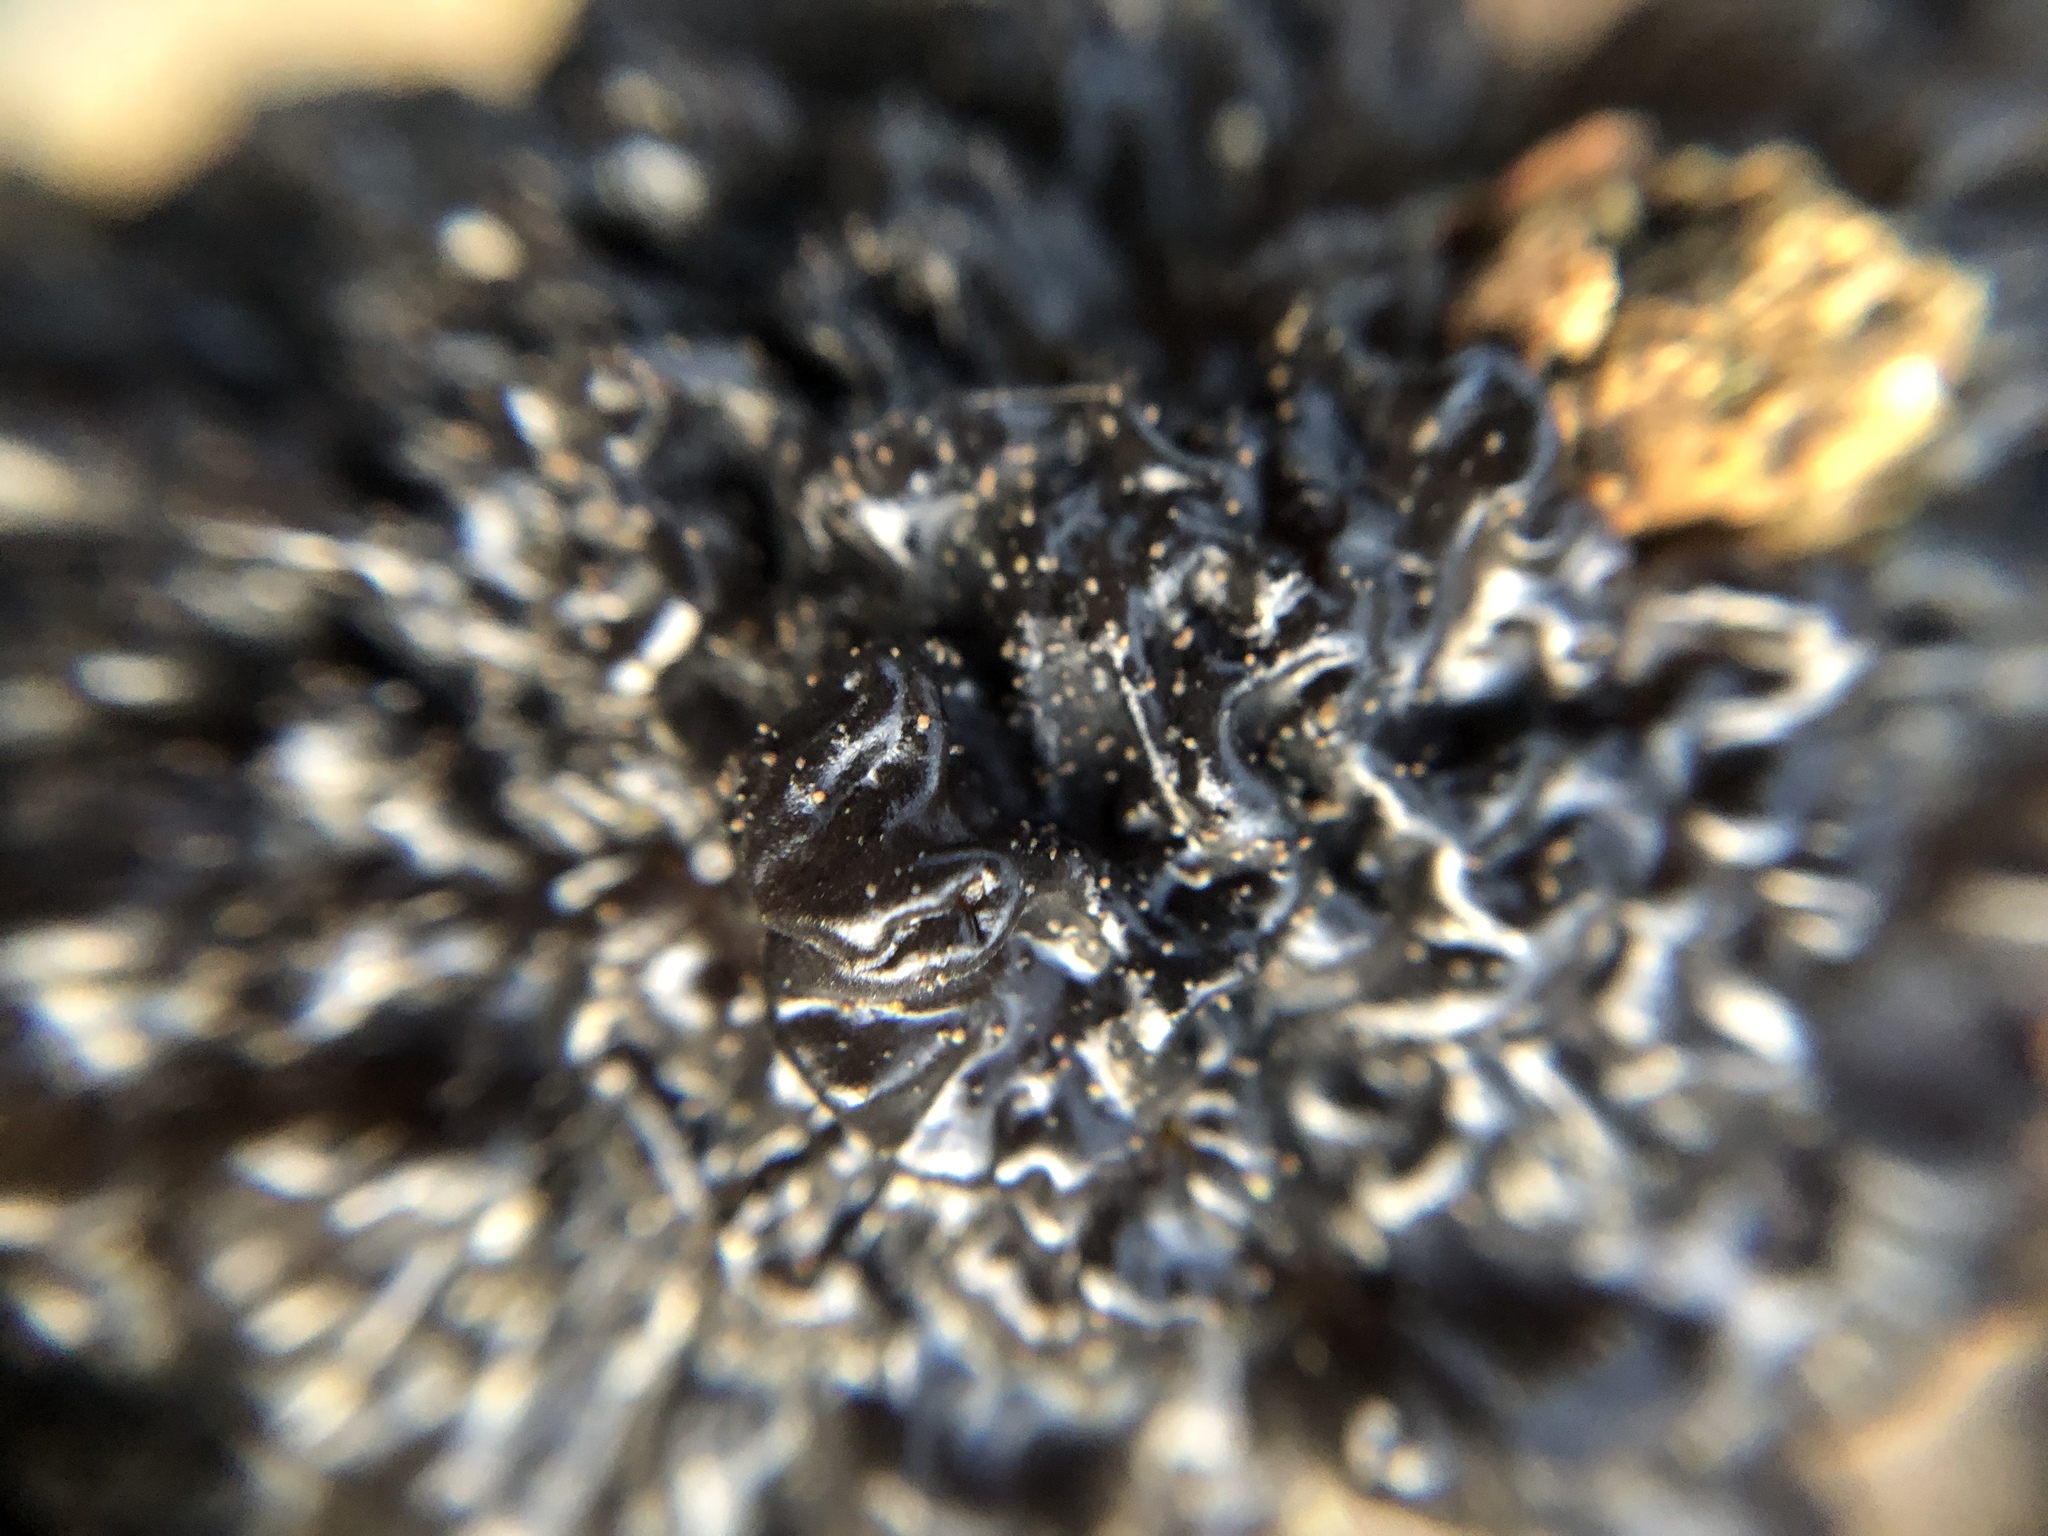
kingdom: Fungi
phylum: Basidiomycota
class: Agaricomycetes
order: Auriculariales
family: Auriculariaceae
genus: Exidia
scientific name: Exidia nigricans
